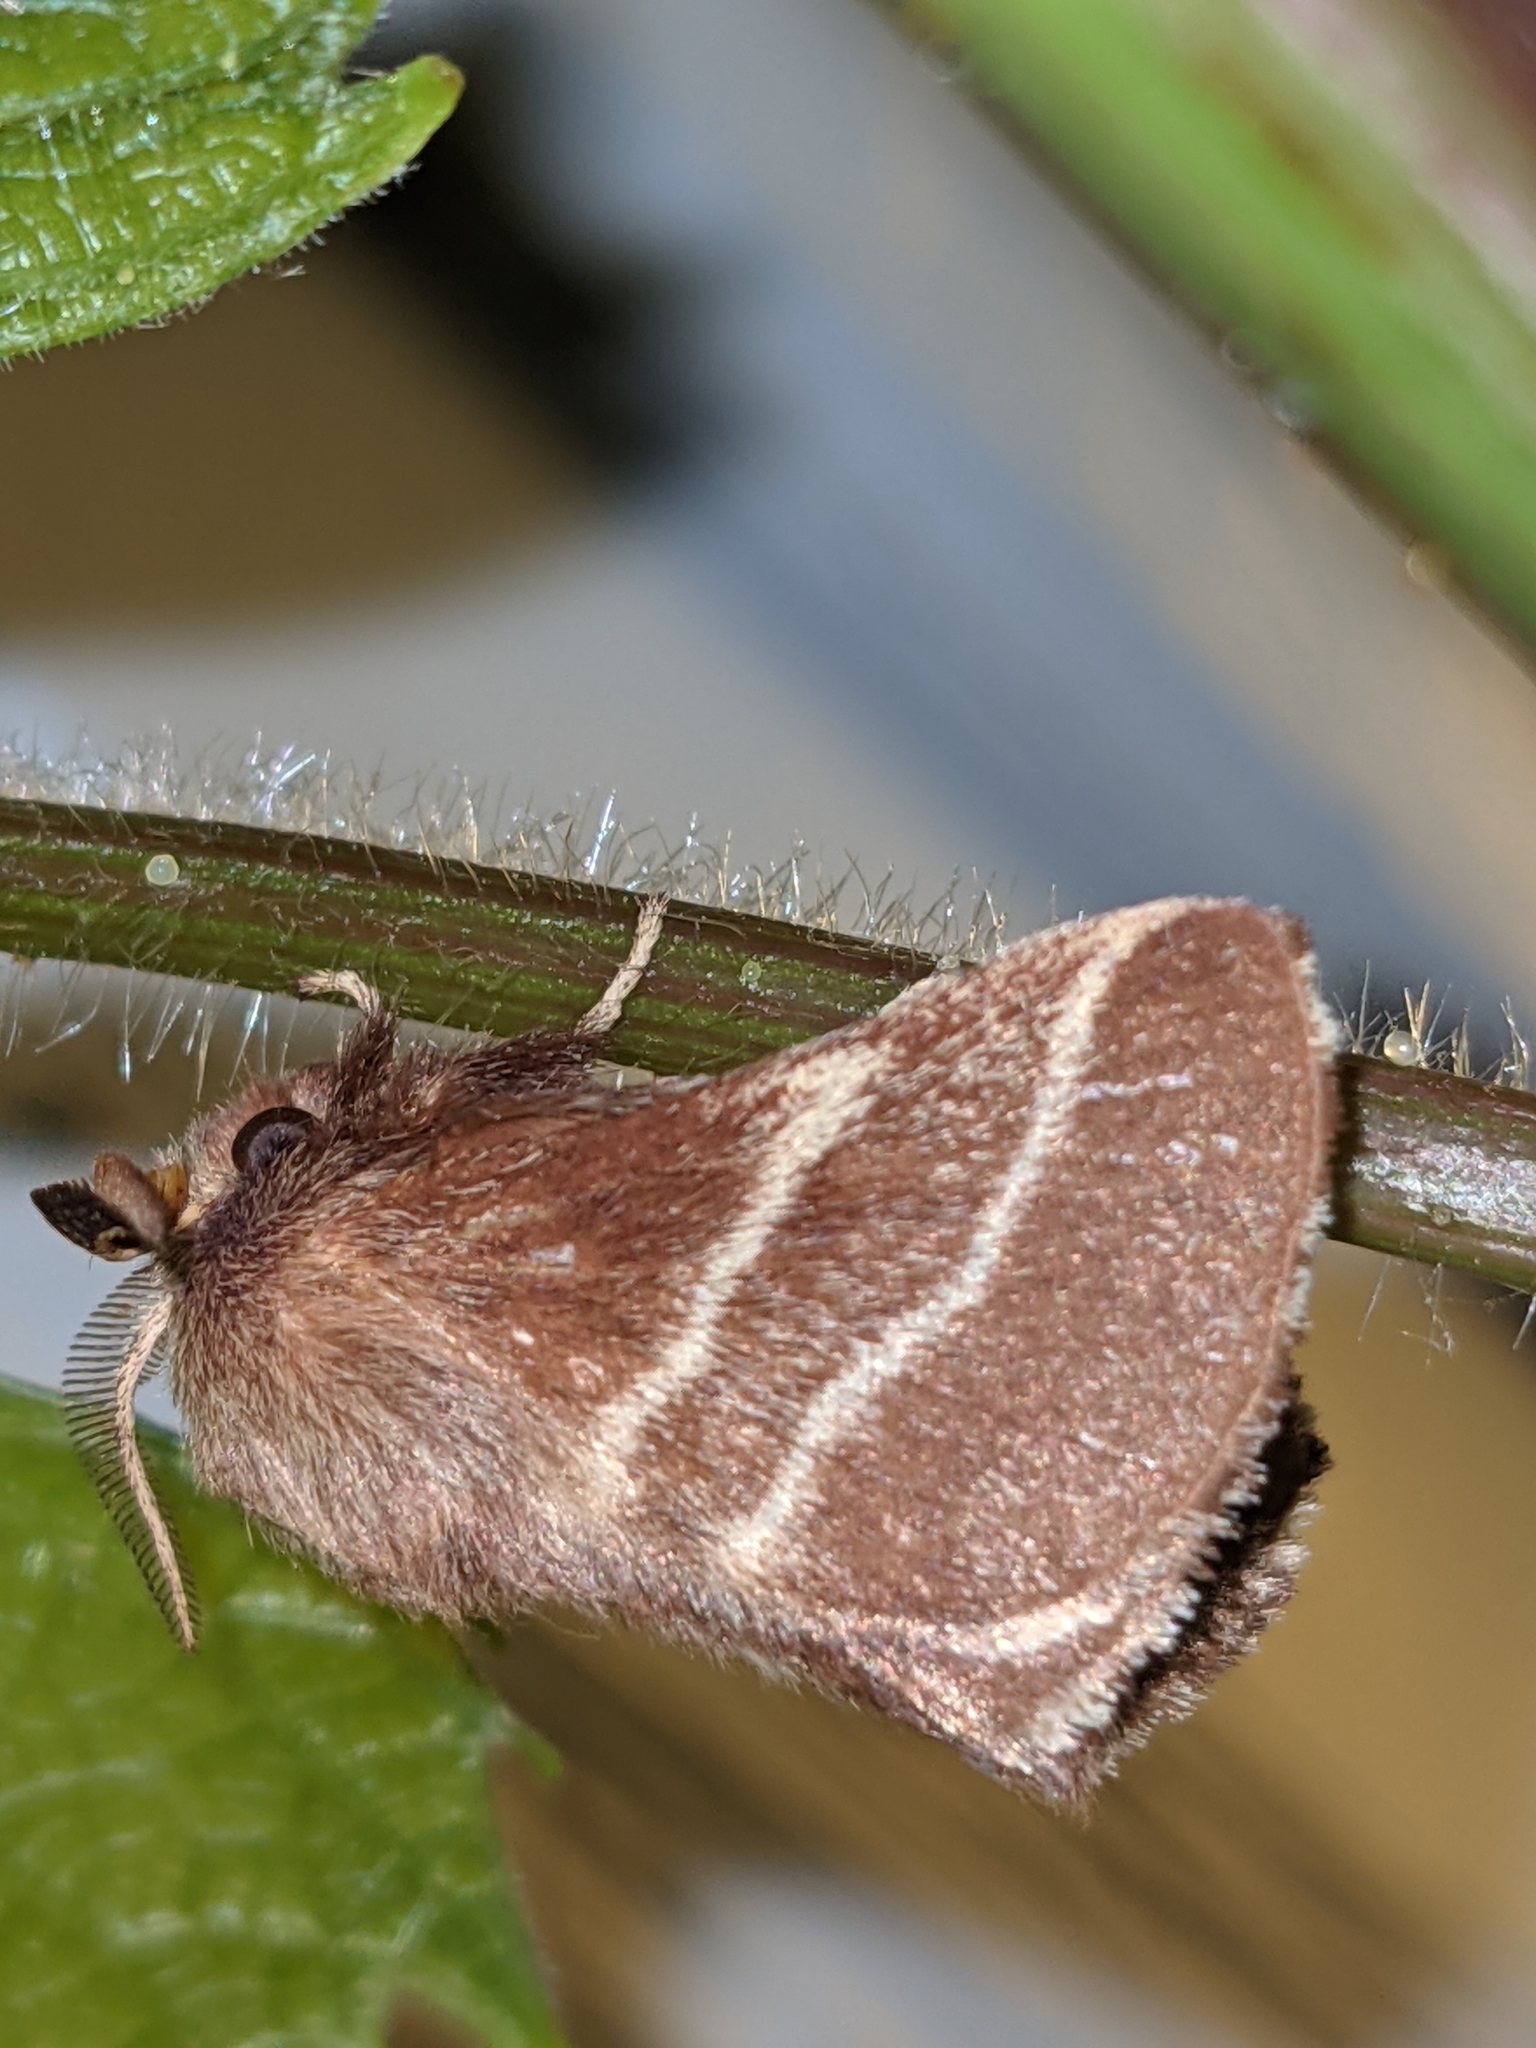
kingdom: Animalia
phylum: Arthropoda
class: Insecta
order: Lepidoptera
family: Lasiocampidae
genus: Malacosoma
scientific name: Malacosoma americana
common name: Eastern tent caterpillar moth
